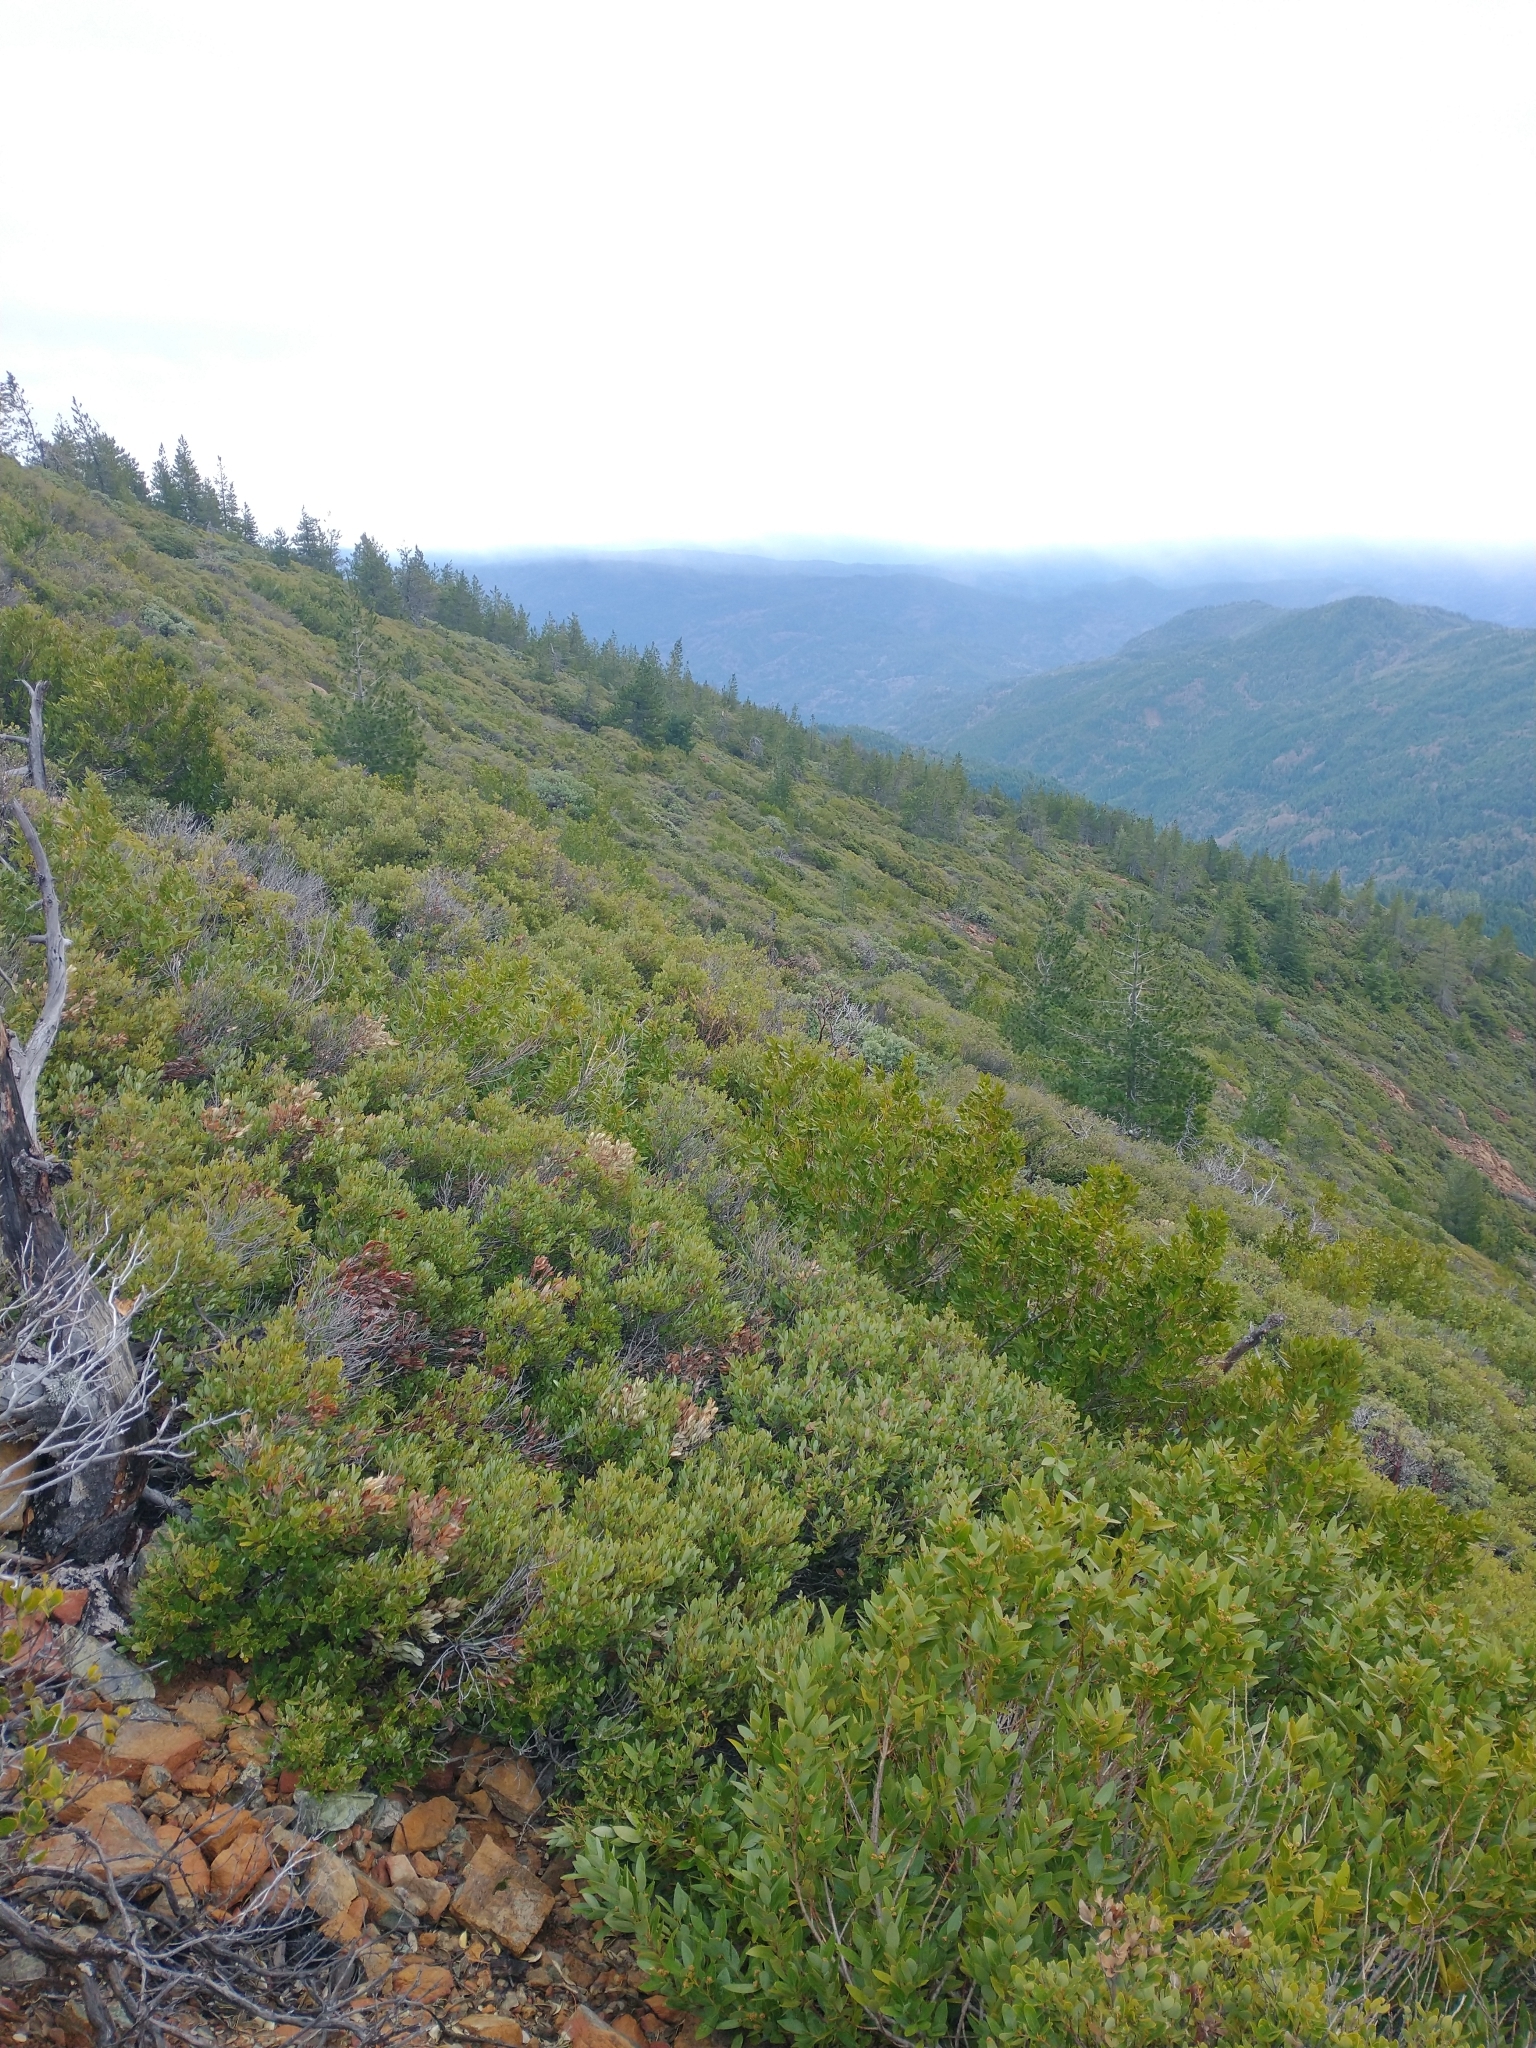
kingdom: Plantae
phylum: Tracheophyta
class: Magnoliopsida
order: Laurales
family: Lauraceae
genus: Umbellularia
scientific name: Umbellularia californica
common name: California bay
